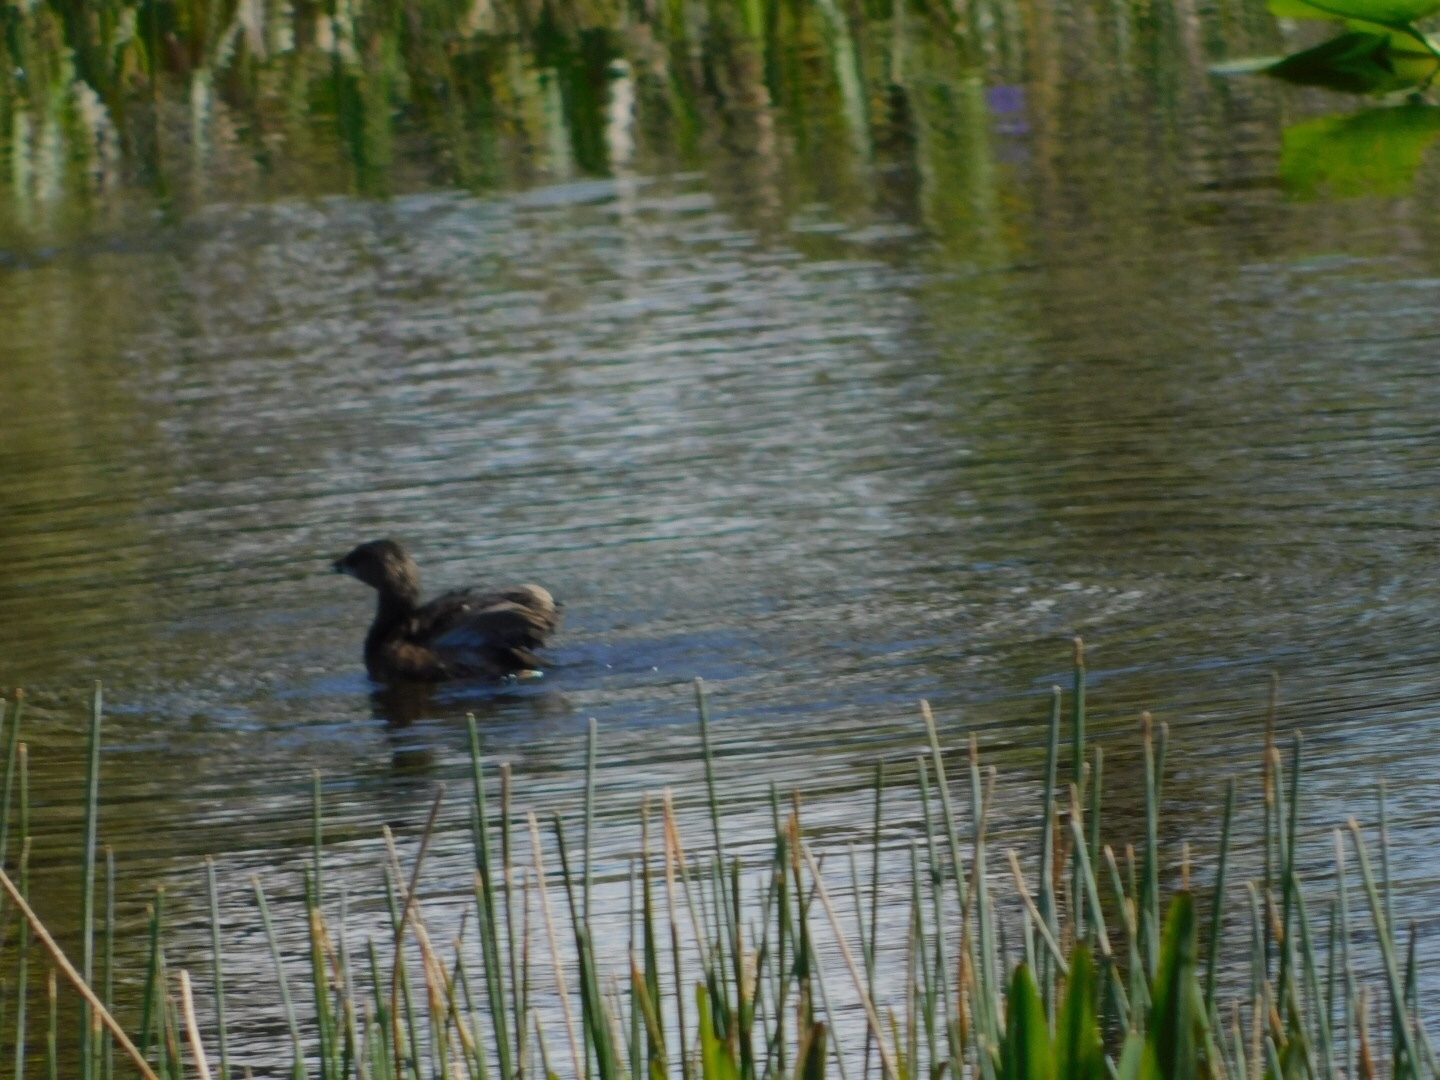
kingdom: Animalia
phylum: Chordata
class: Aves
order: Podicipediformes
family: Podicipedidae
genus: Podilymbus
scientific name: Podilymbus podiceps
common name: Pied-billed grebe
